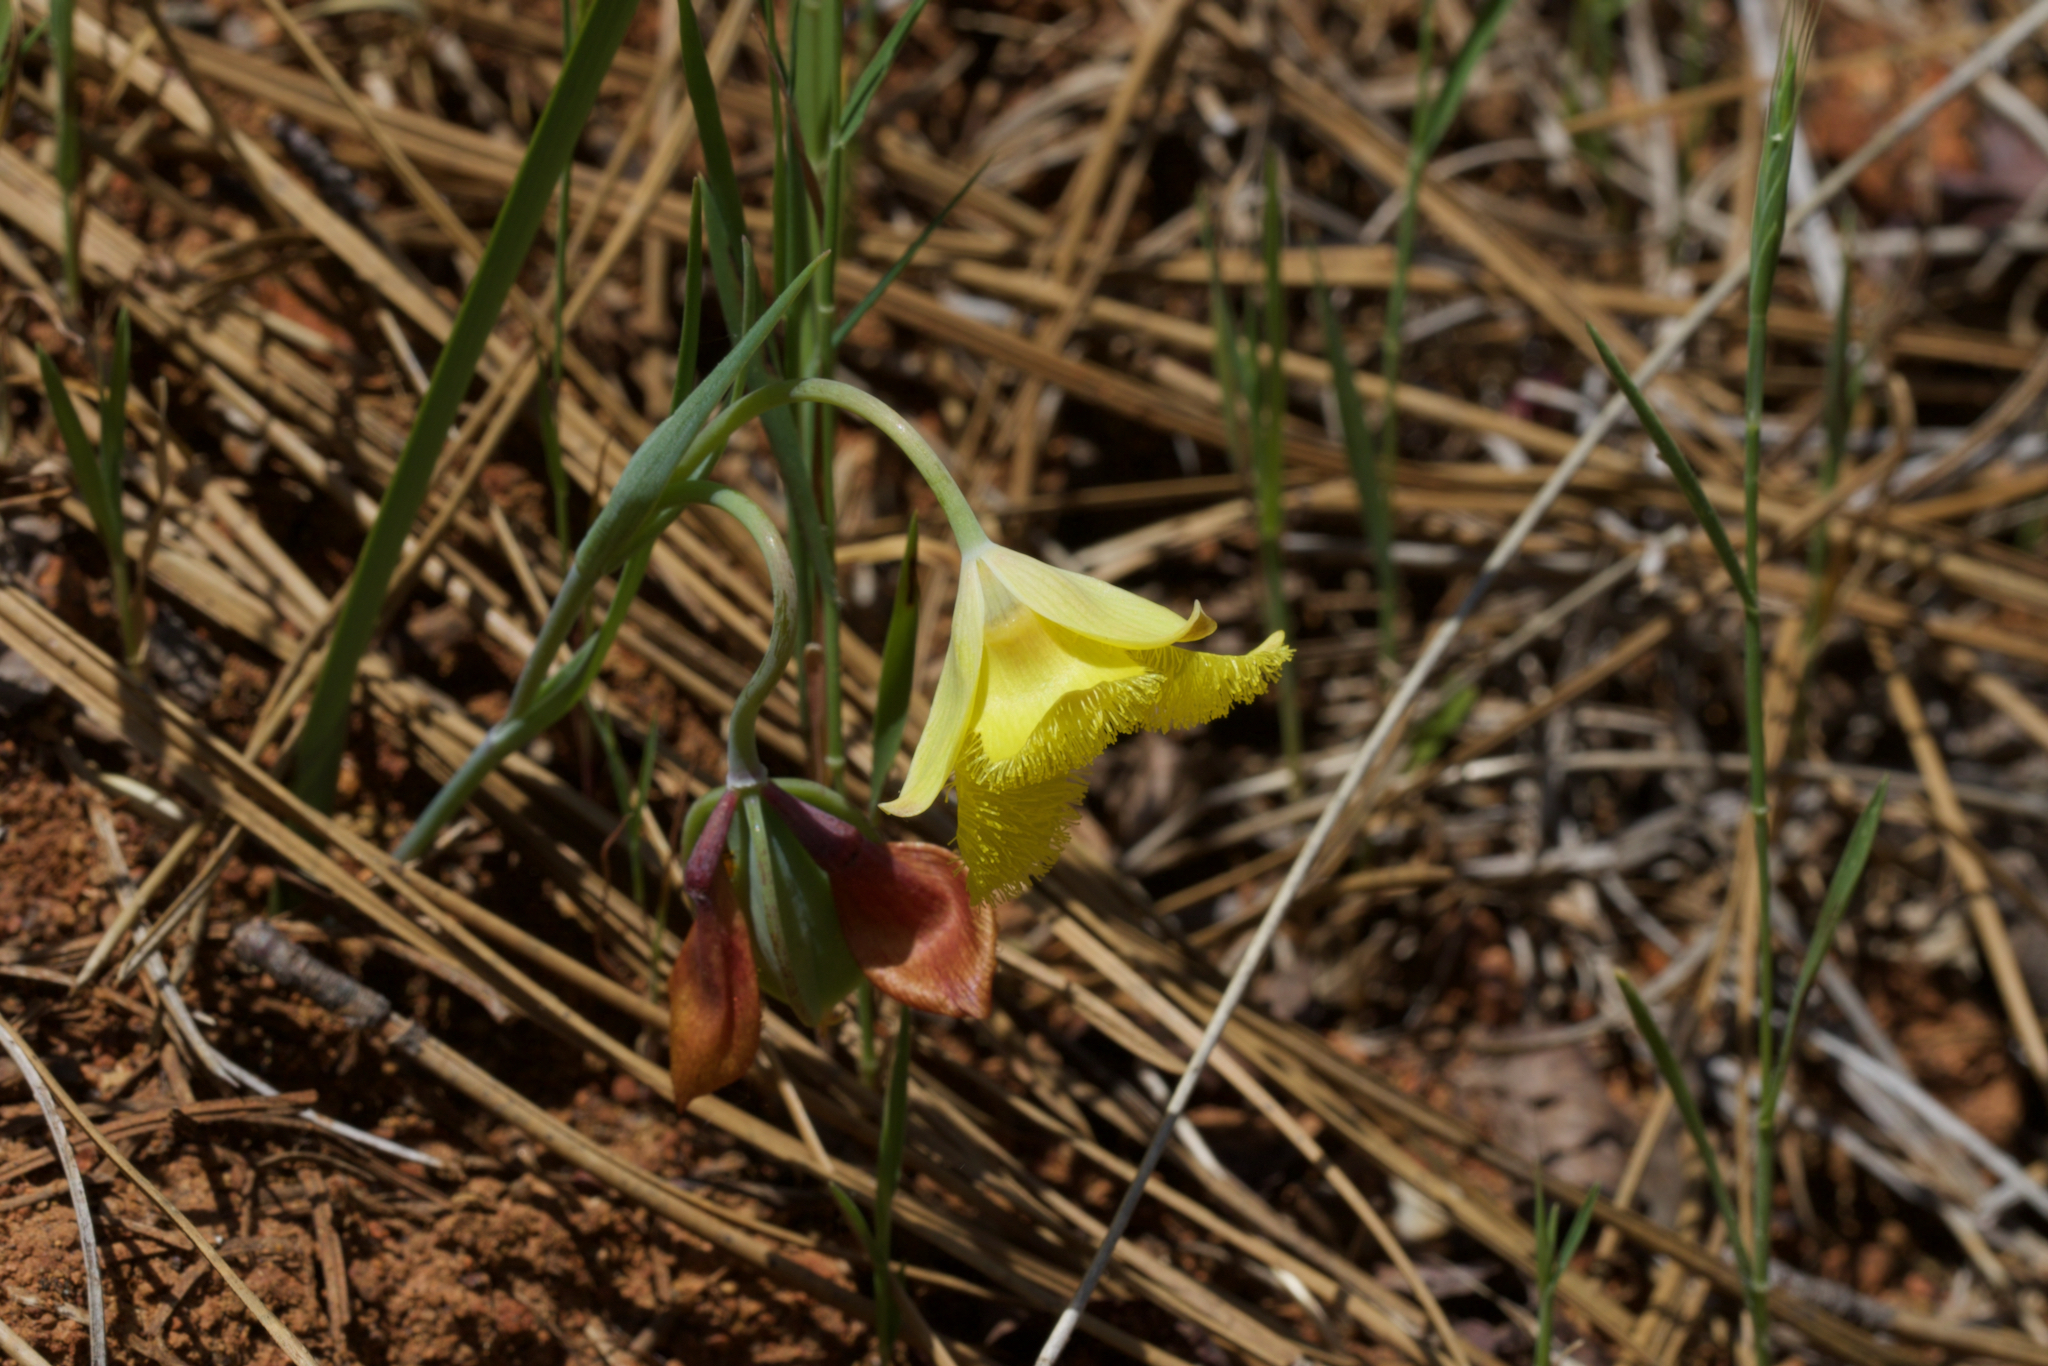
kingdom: Plantae
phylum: Tracheophyta
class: Liliopsida
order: Liliales
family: Liliaceae
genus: Calochortus
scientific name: Calochortus monophyllus
